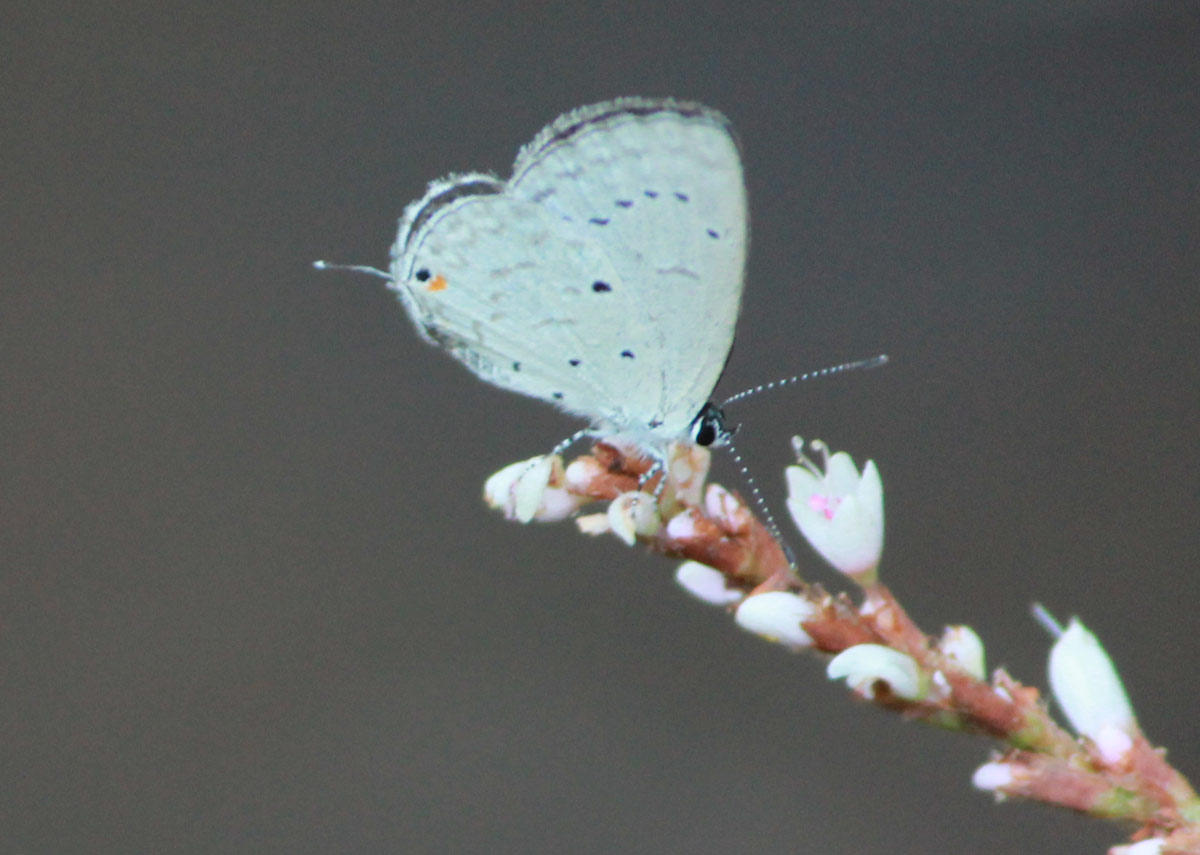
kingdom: Animalia
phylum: Arthropoda
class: Insecta
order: Lepidoptera
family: Lycaenidae
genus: Eicochrysops
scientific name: Eicochrysops hippocrates
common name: White-tipped blue
